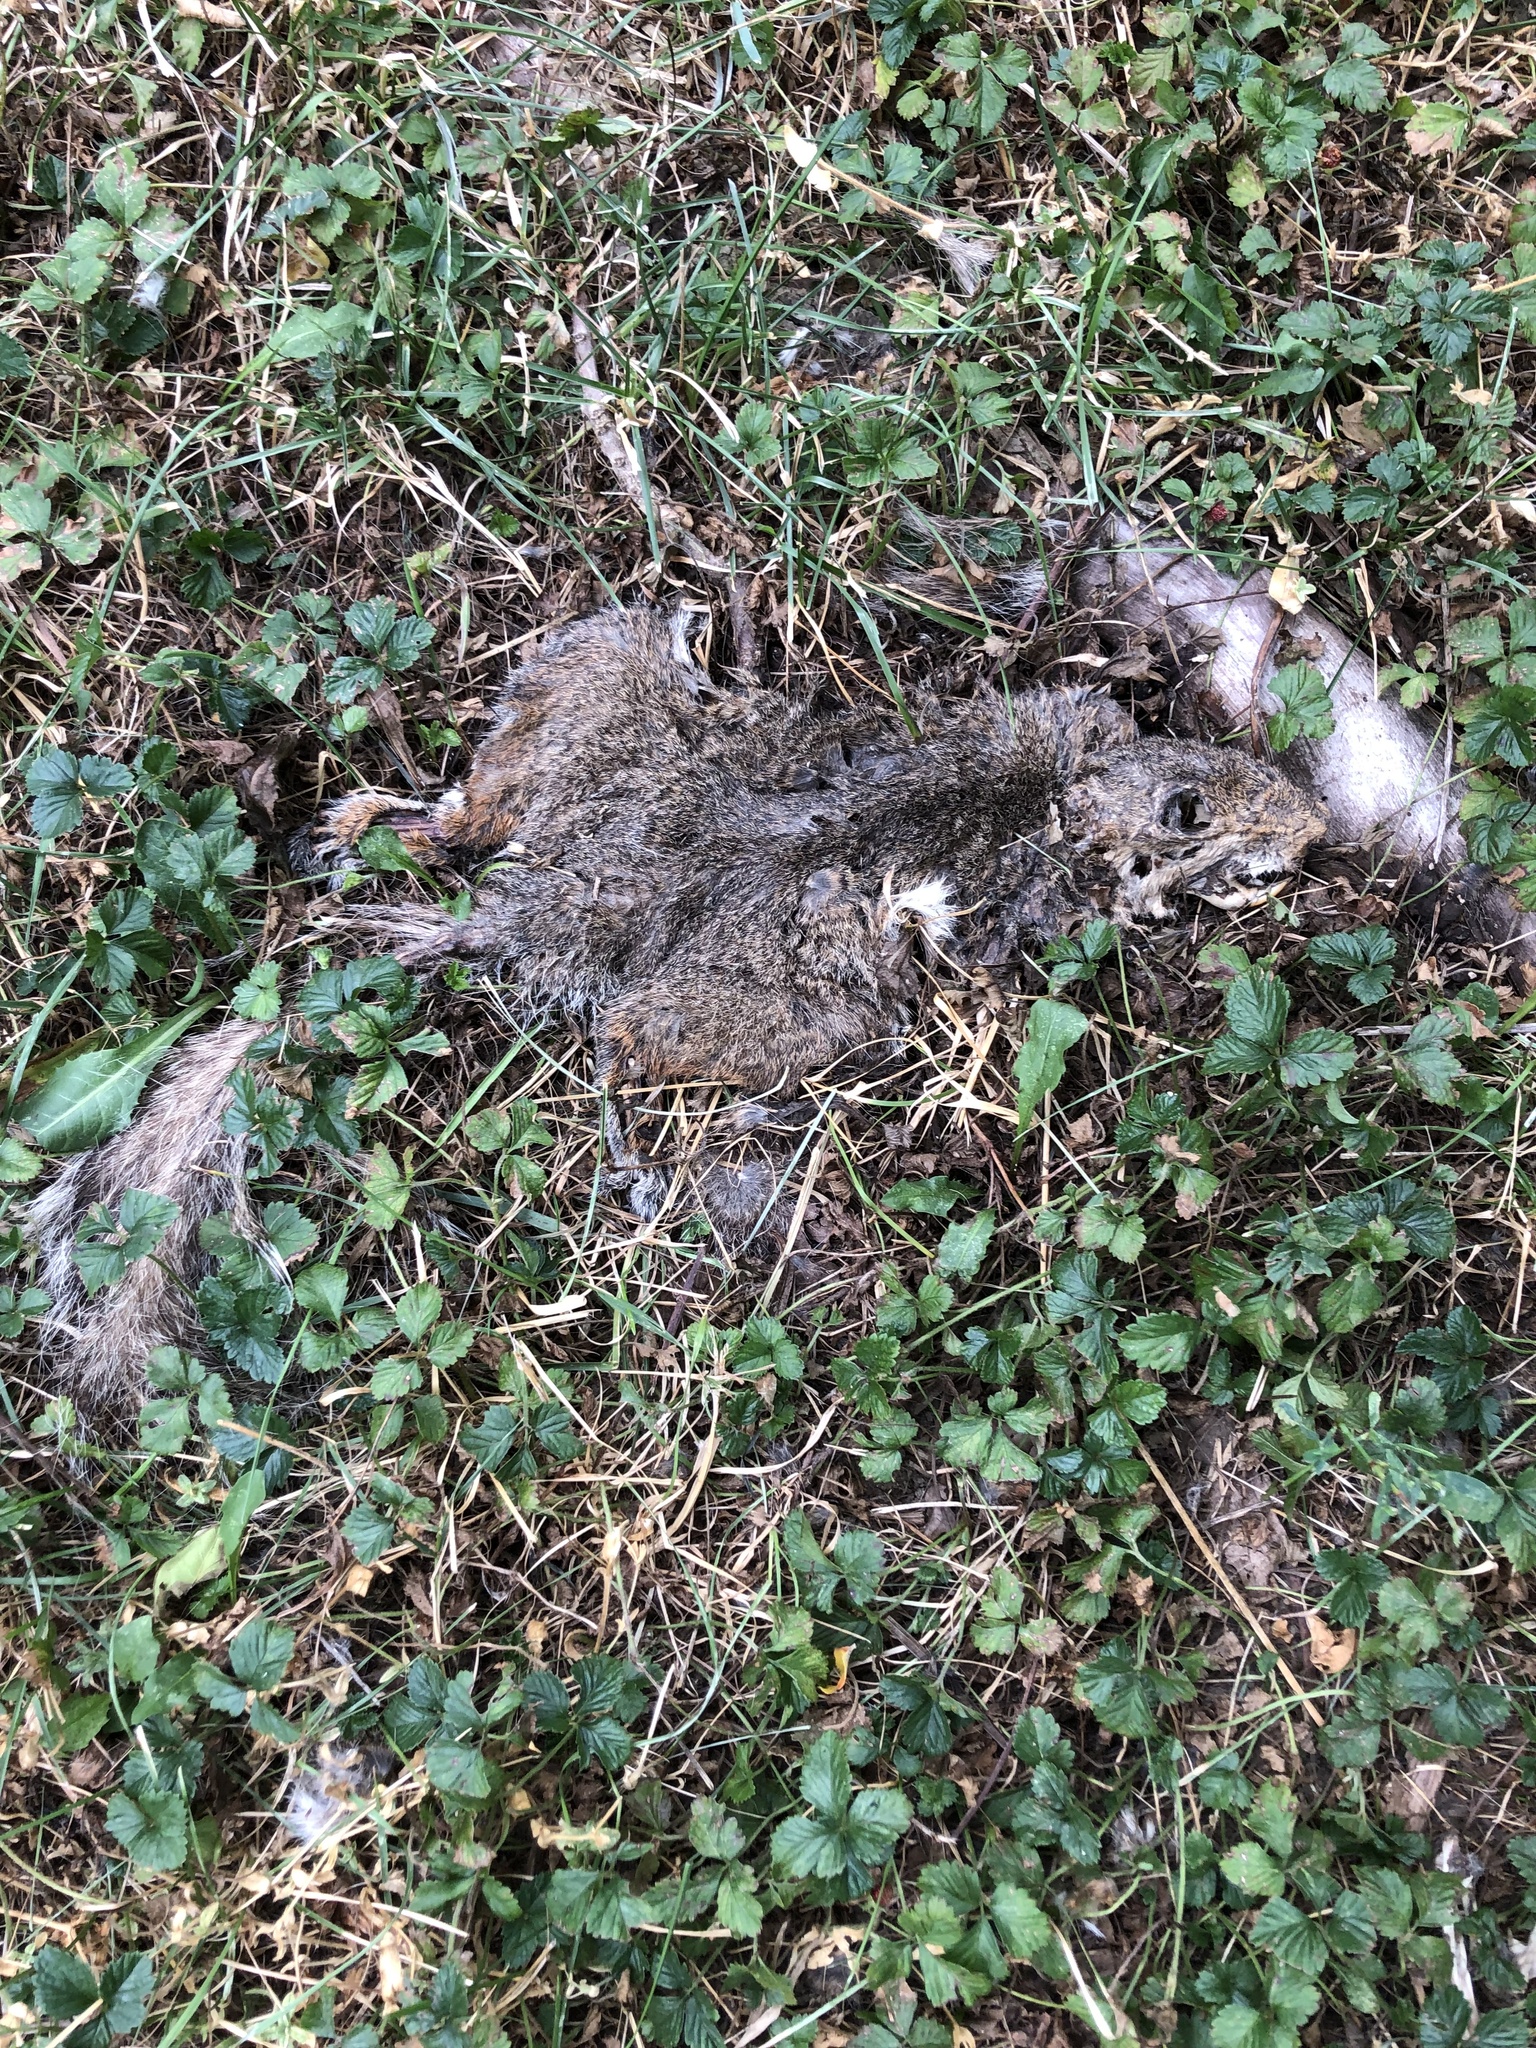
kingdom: Animalia
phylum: Chordata
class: Mammalia
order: Rodentia
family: Sciuridae
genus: Sciurus
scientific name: Sciurus carolinensis
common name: Eastern gray squirrel
